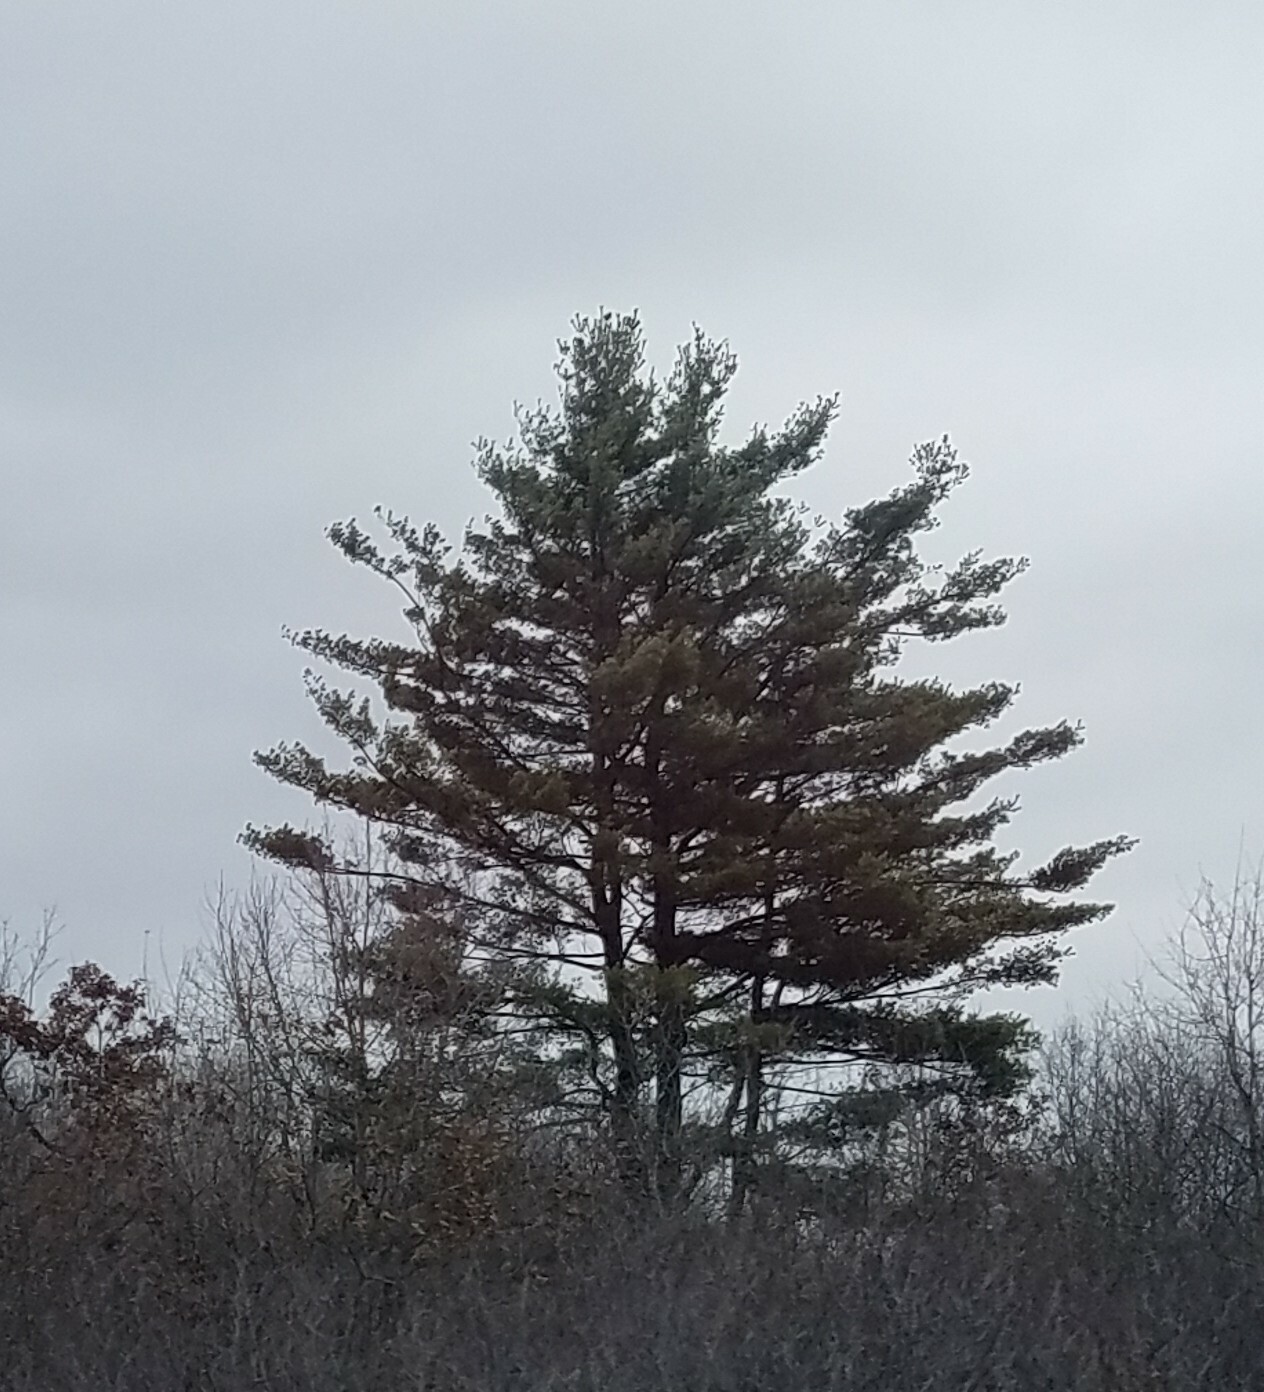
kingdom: Plantae
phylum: Tracheophyta
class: Pinopsida
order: Pinales
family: Pinaceae
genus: Pinus
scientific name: Pinus strobus
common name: Weymouth pine
